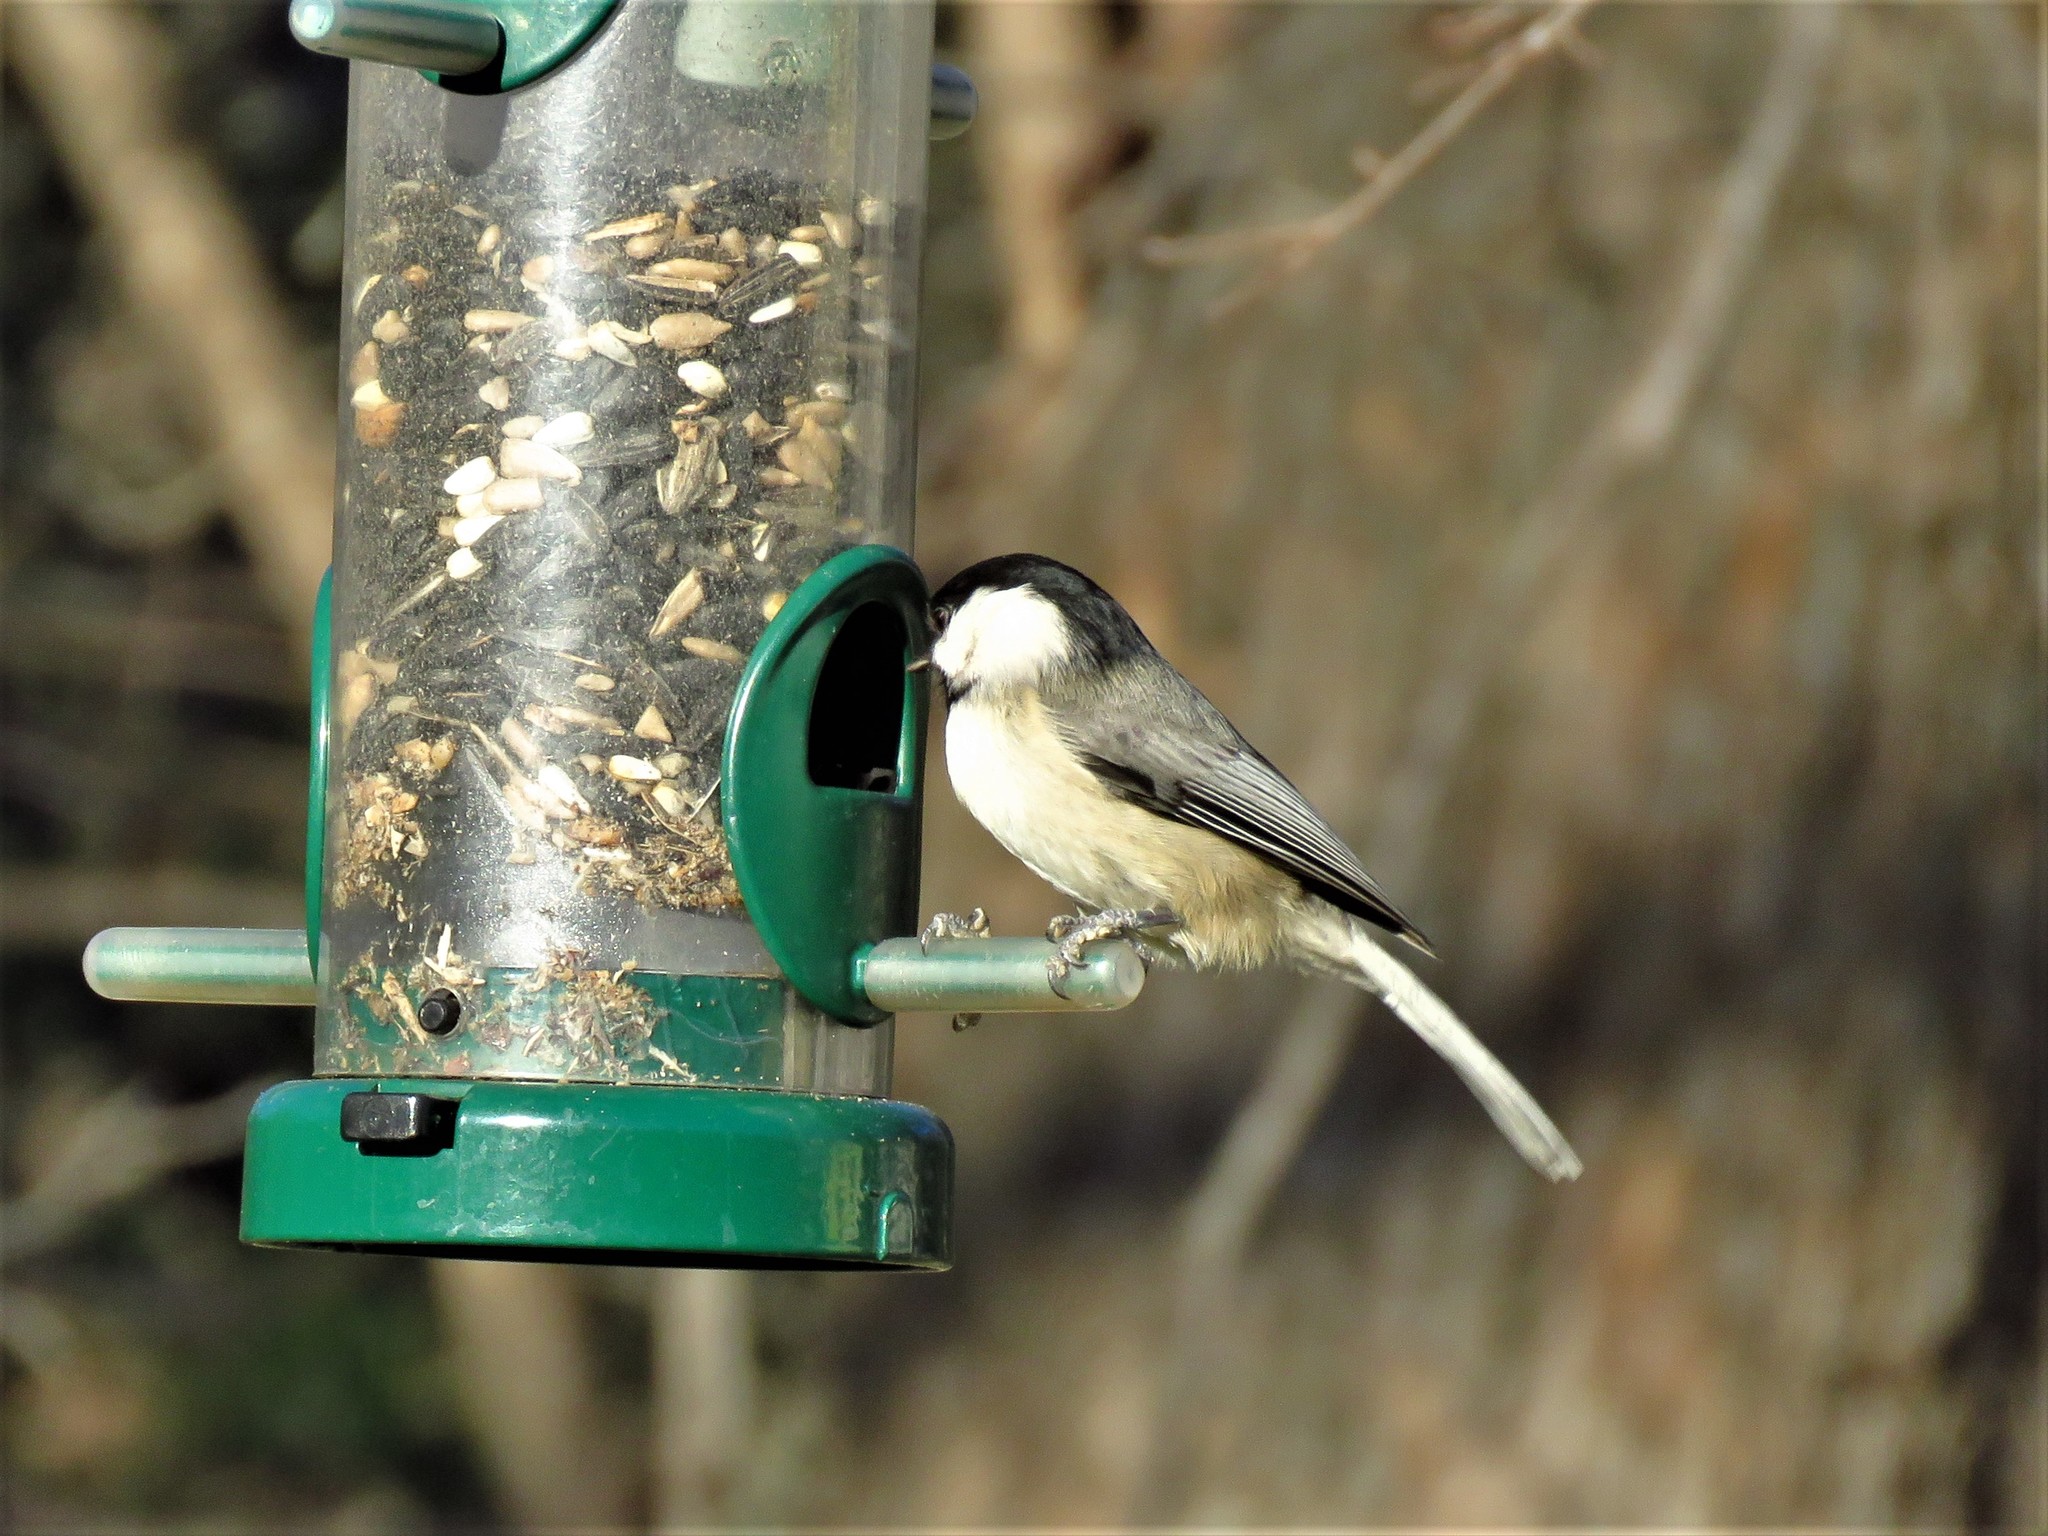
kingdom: Animalia
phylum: Chordata
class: Aves
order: Passeriformes
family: Paridae
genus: Poecile
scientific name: Poecile carolinensis
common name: Carolina chickadee
